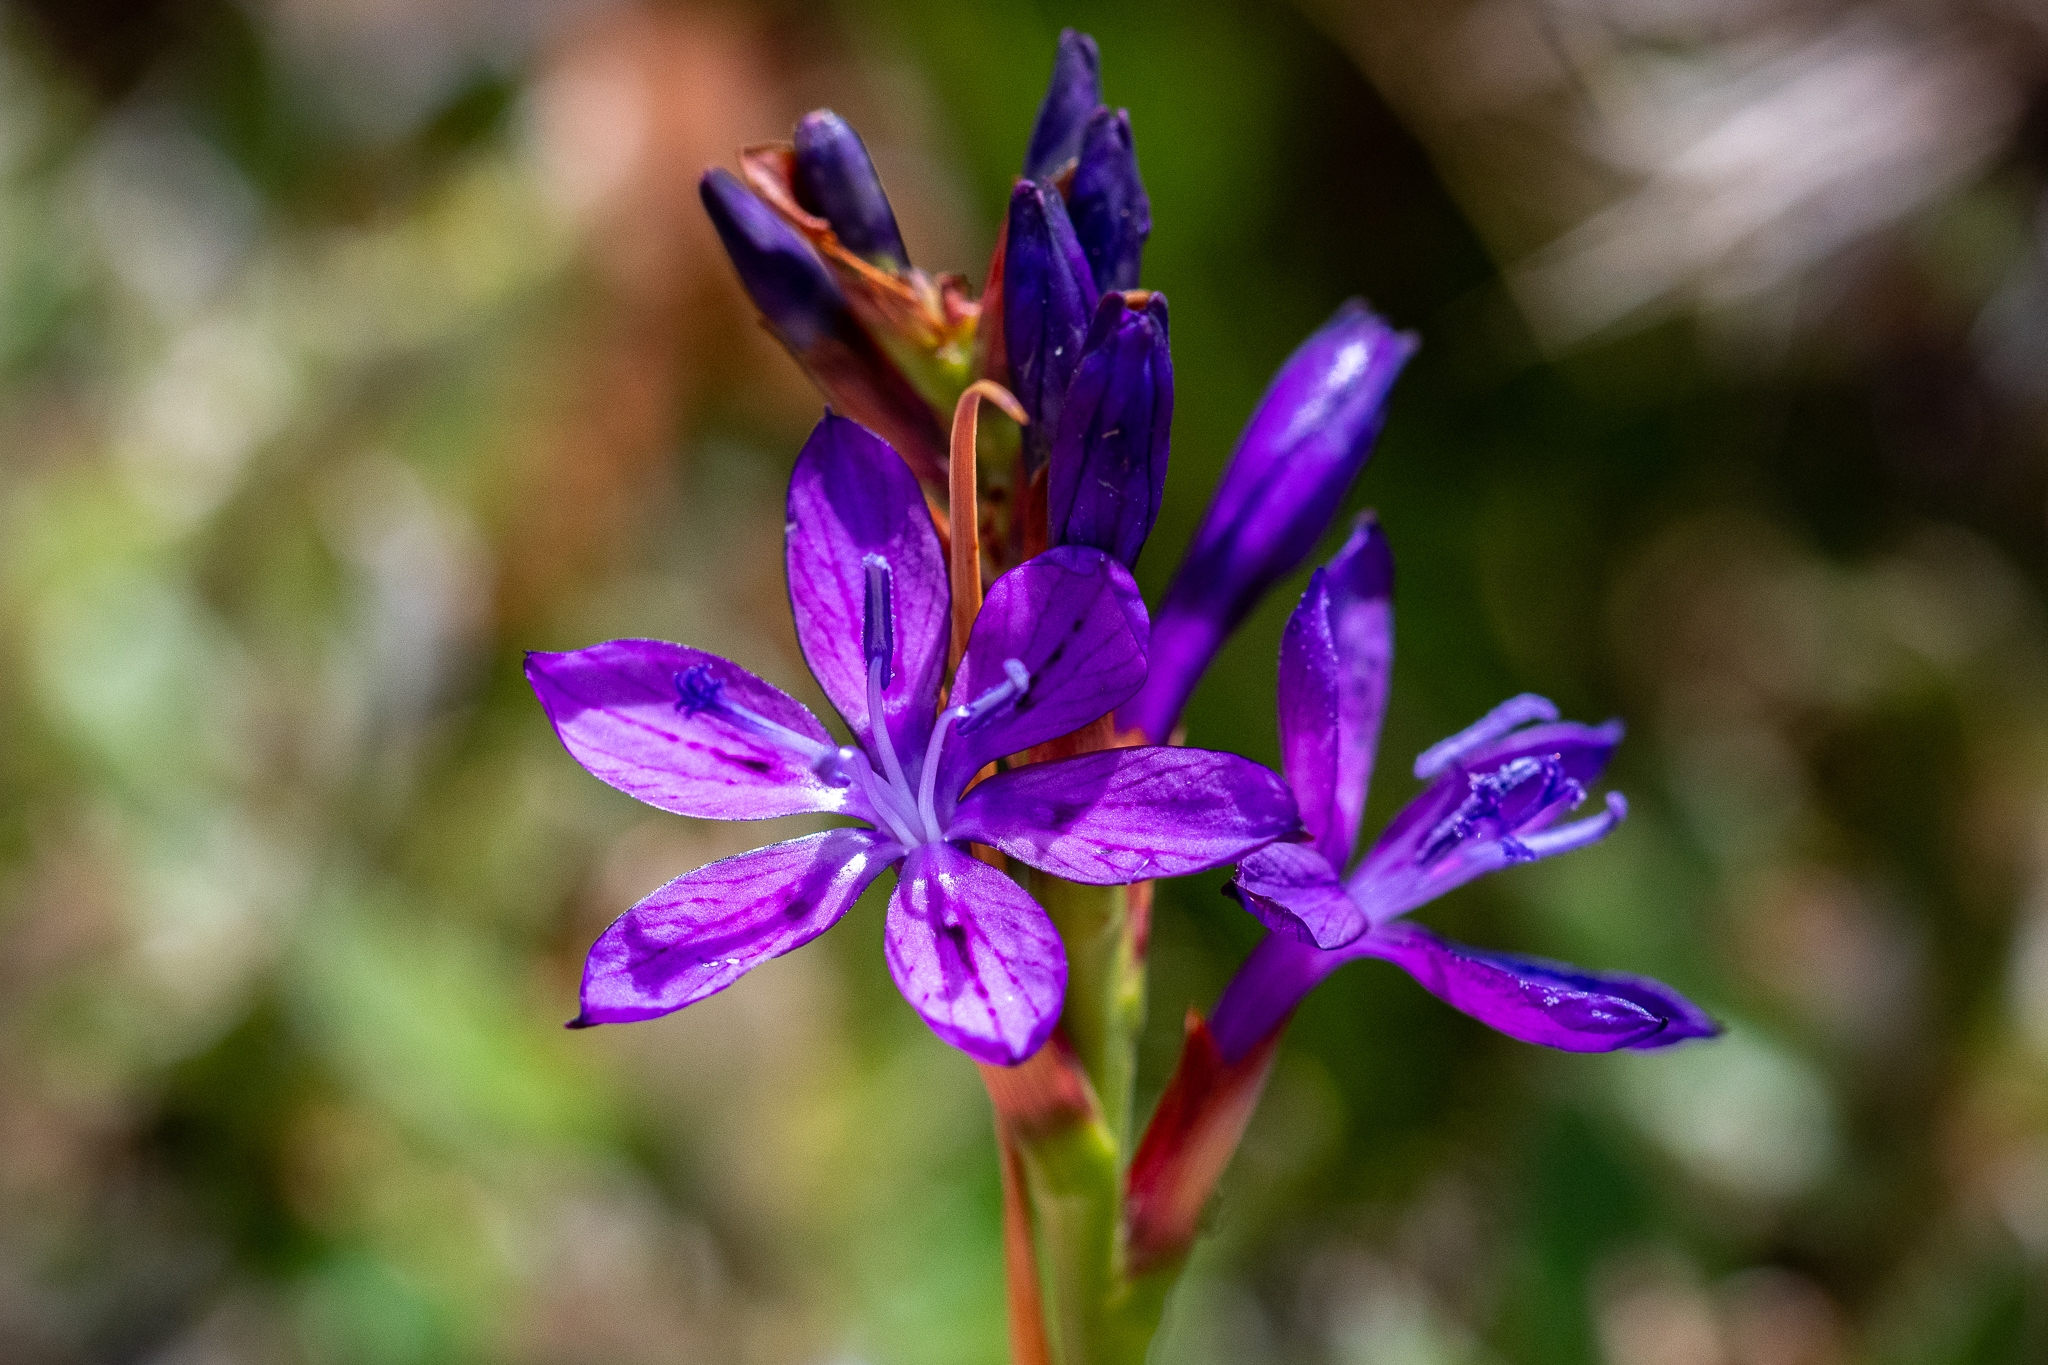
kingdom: Plantae
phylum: Tracheophyta
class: Liliopsida
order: Asparagales
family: Iridaceae
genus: Thereianthus
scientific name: Thereianthus bracteolatus
